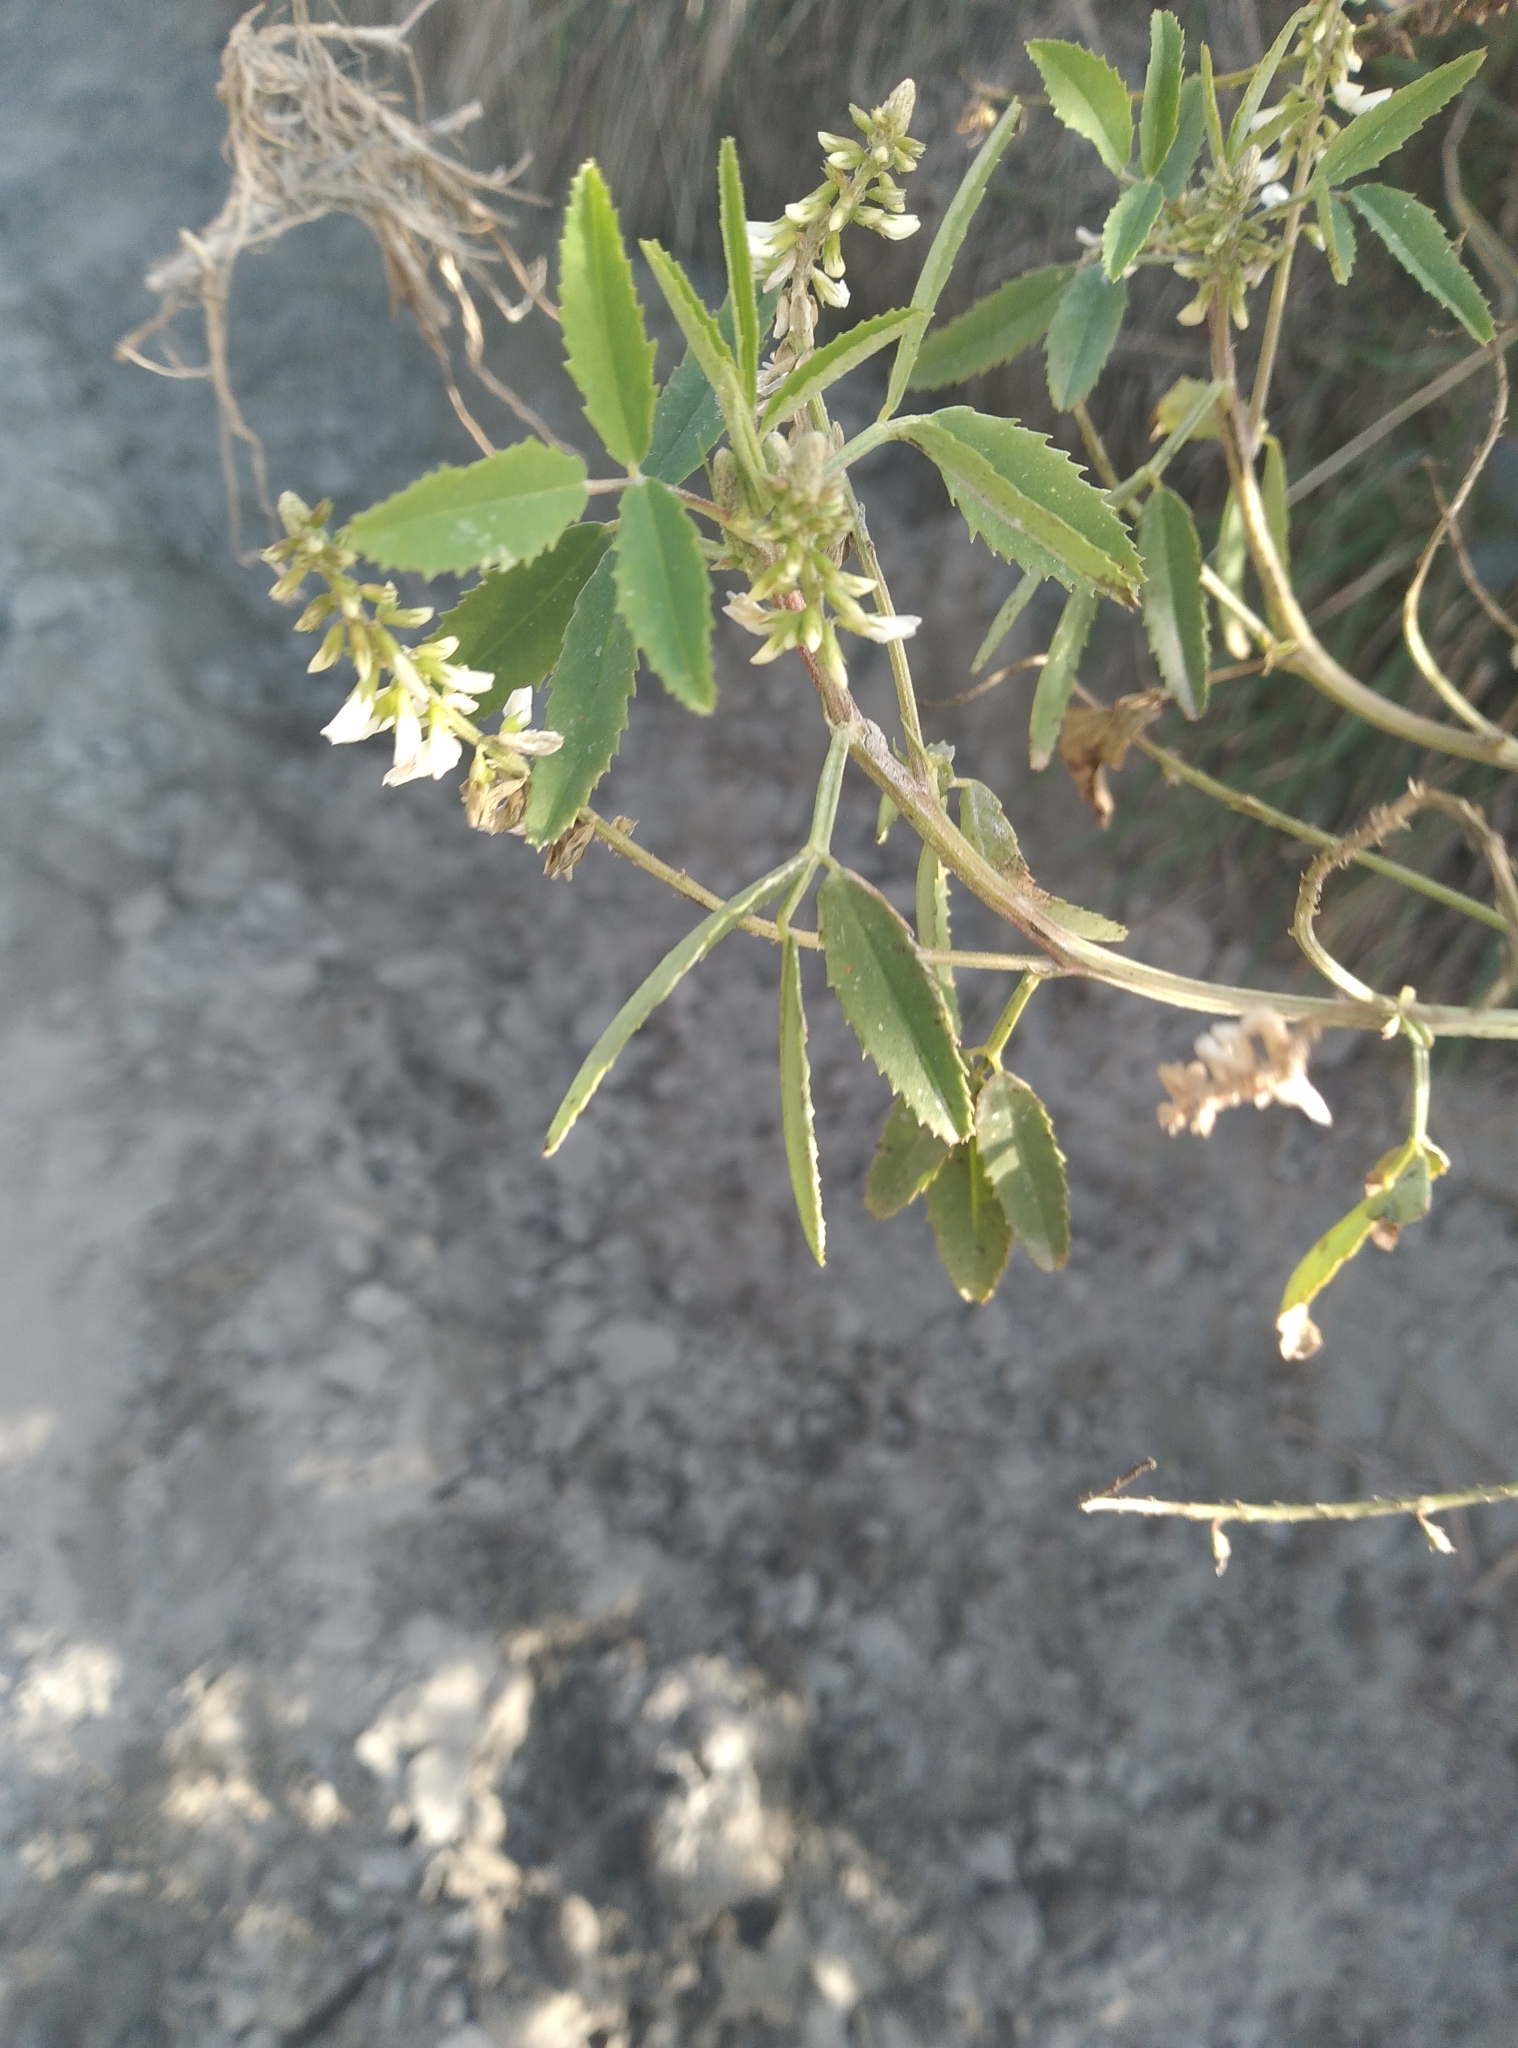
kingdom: Plantae
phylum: Tracheophyta
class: Magnoliopsida
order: Fabales
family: Fabaceae
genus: Melilotus
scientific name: Melilotus albus
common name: White melilot
